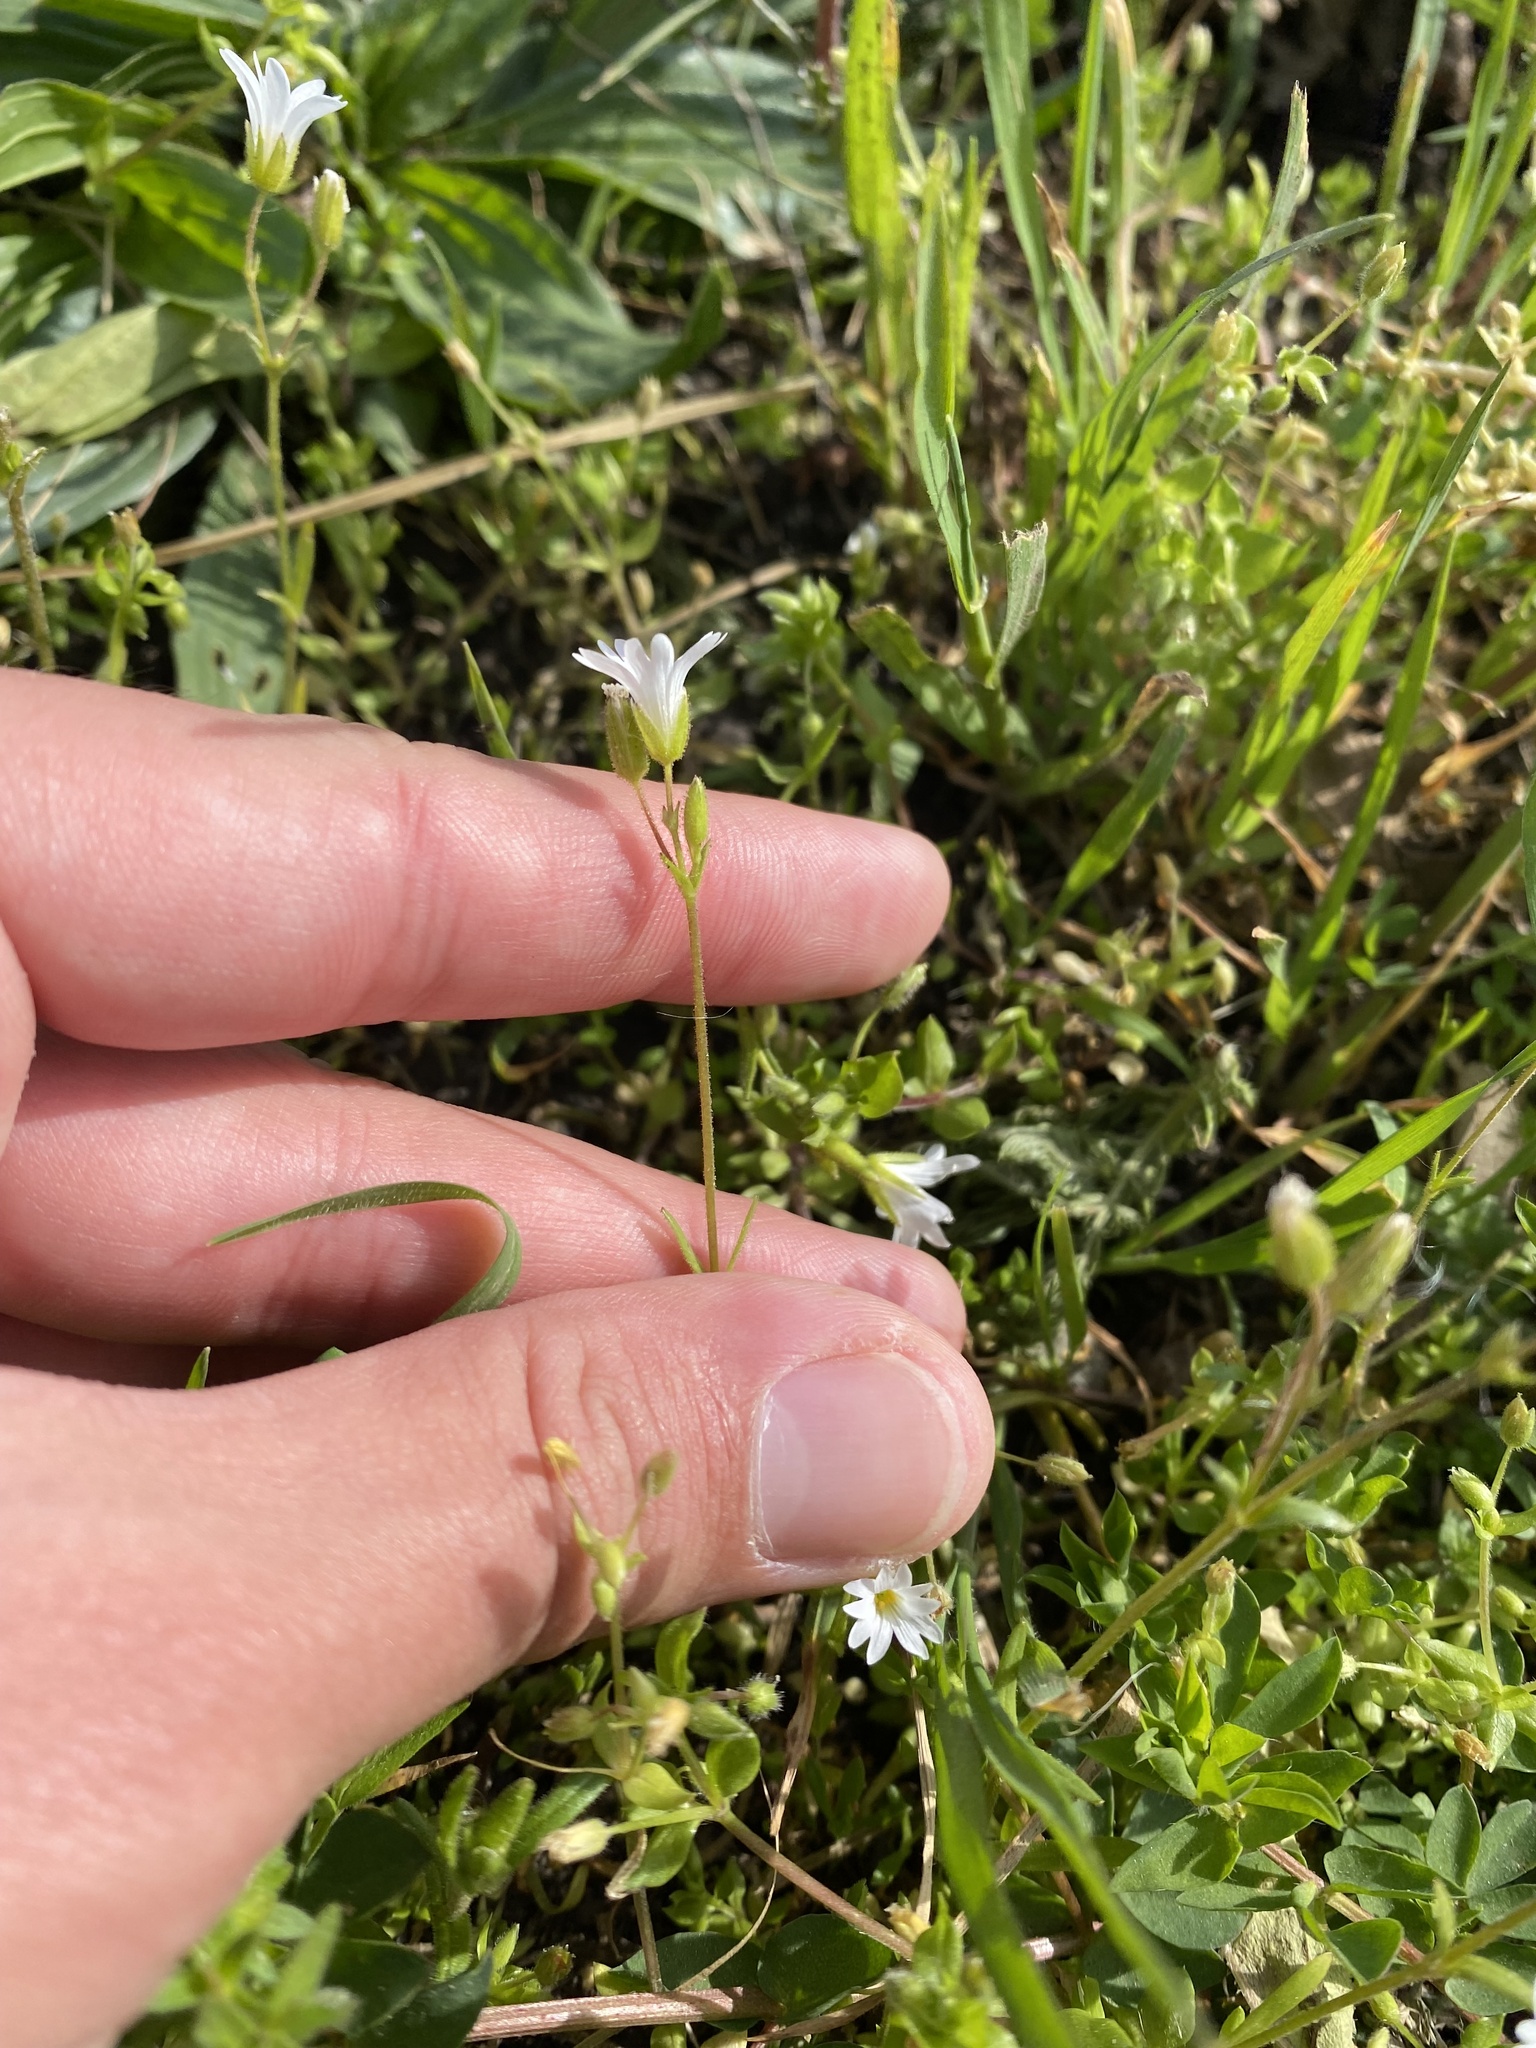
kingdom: Plantae
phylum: Tracheophyta
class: Magnoliopsida
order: Caryophyllales
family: Caryophyllaceae
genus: Dichodon
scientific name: Dichodon viscidum
